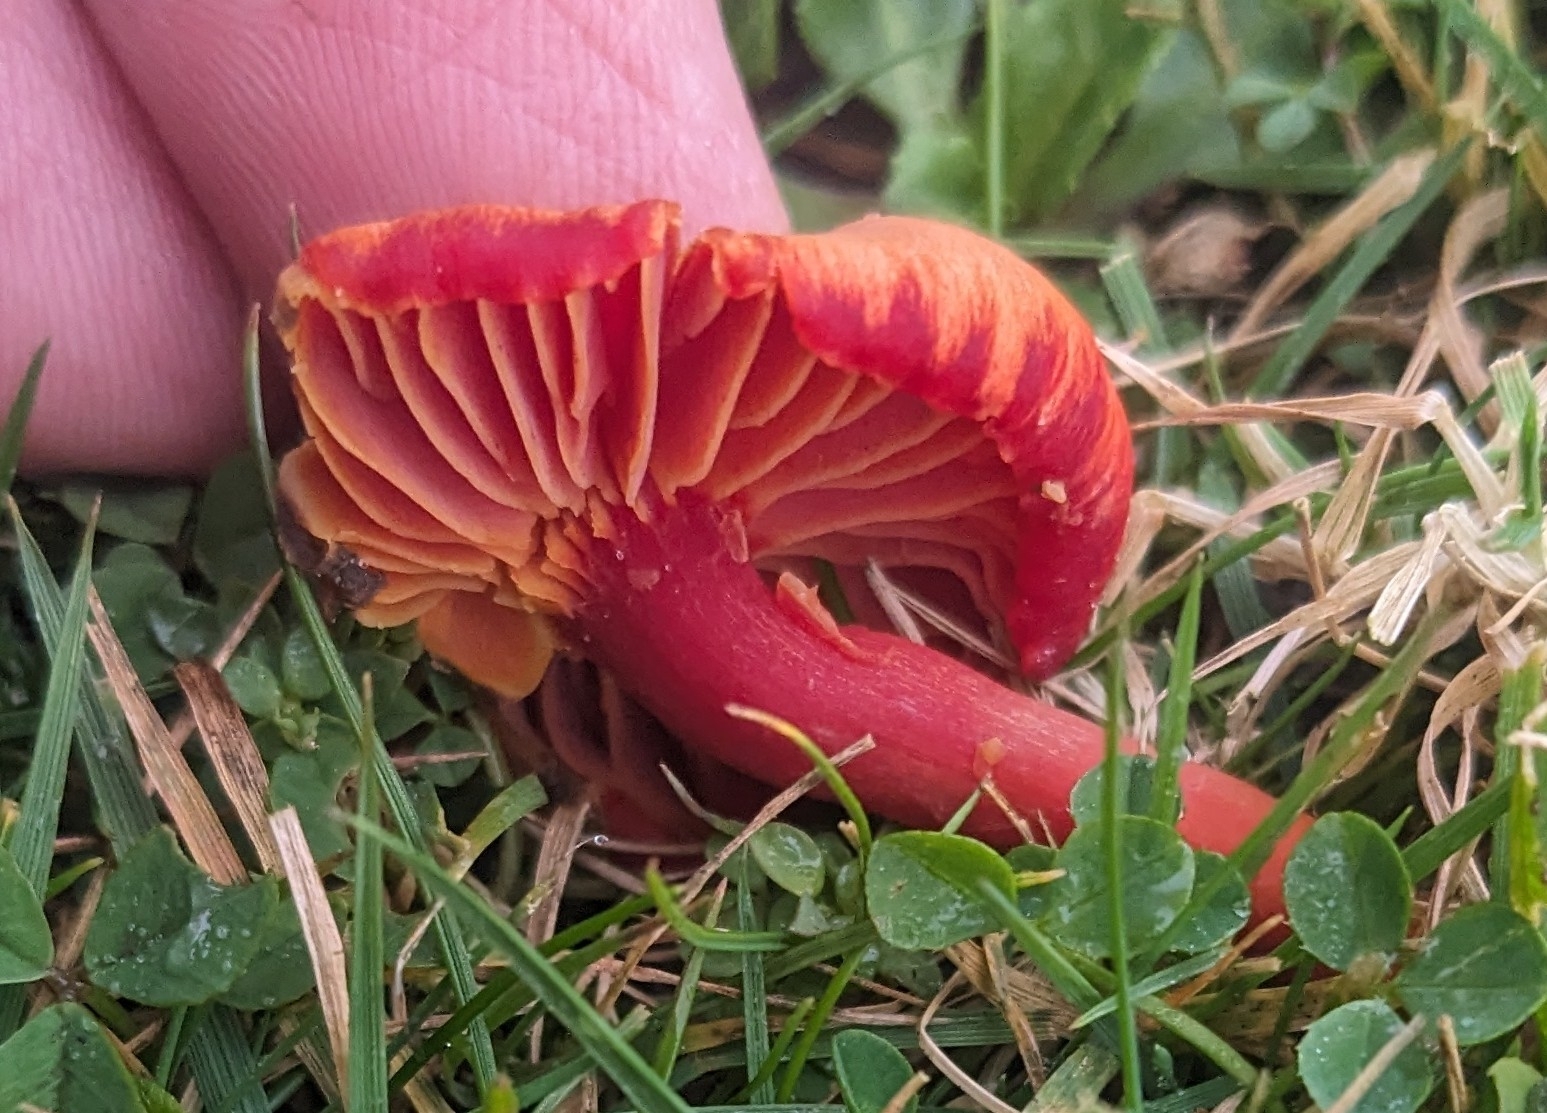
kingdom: Fungi
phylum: Basidiomycota
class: Agaricomycetes
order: Agaricales
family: Hygrophoraceae
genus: Hygrocybe
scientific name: Hygrocybe punicea
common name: Crimson waxcap
